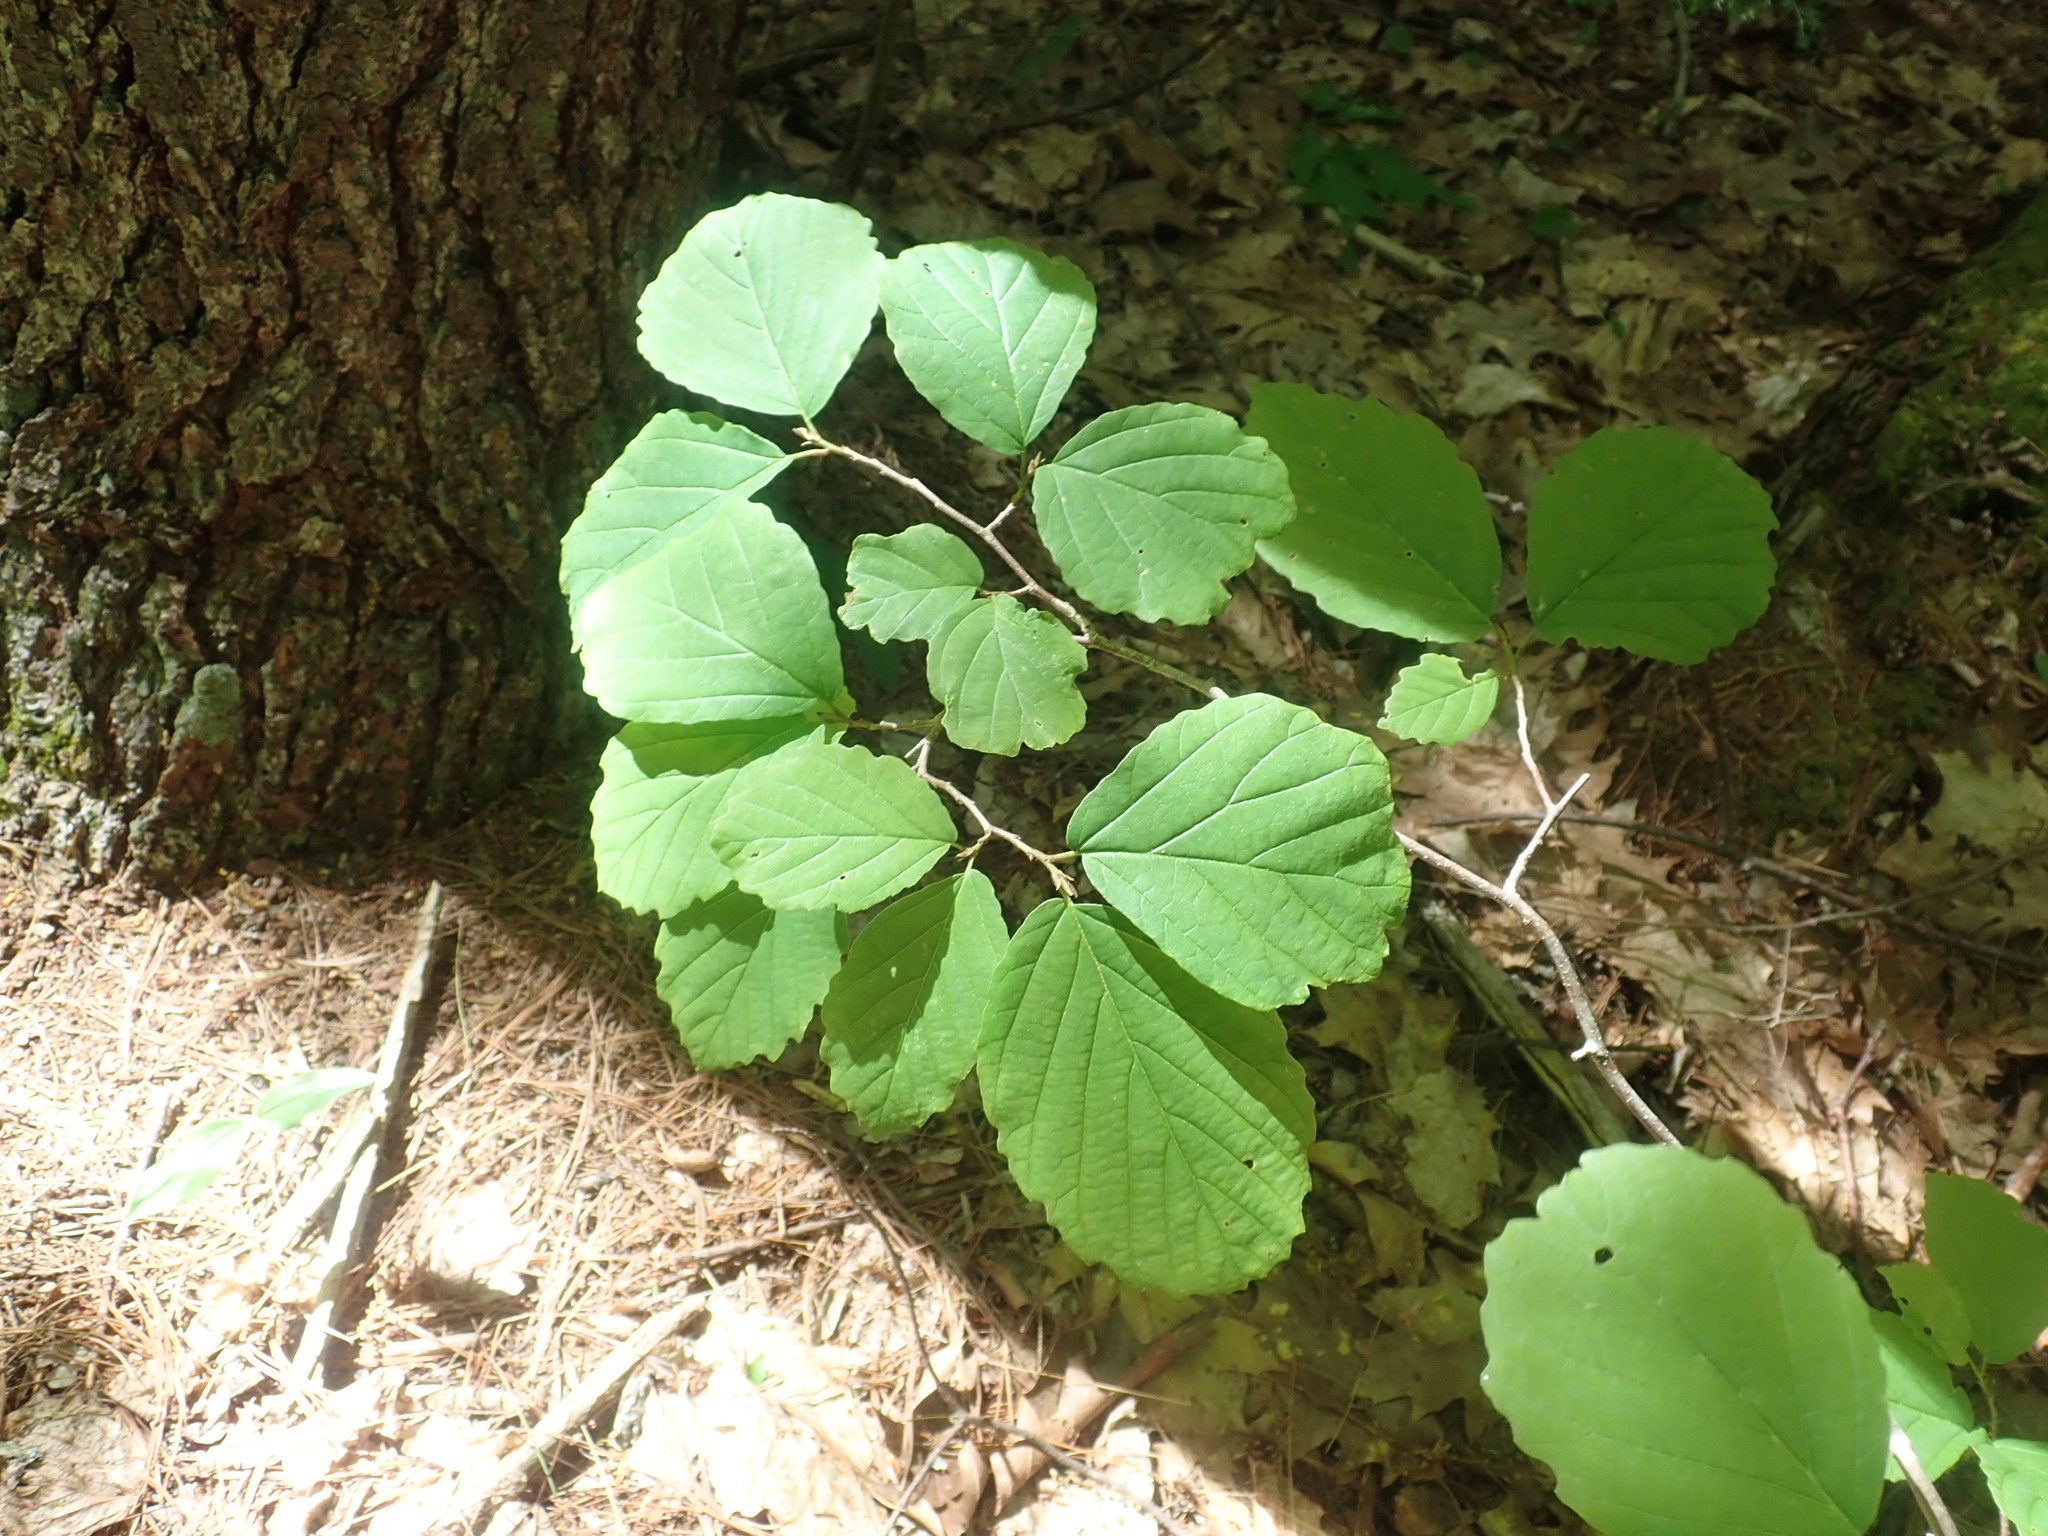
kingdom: Plantae
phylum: Tracheophyta
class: Magnoliopsida
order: Saxifragales
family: Hamamelidaceae
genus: Hamamelis
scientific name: Hamamelis virginiana
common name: Witch-hazel
